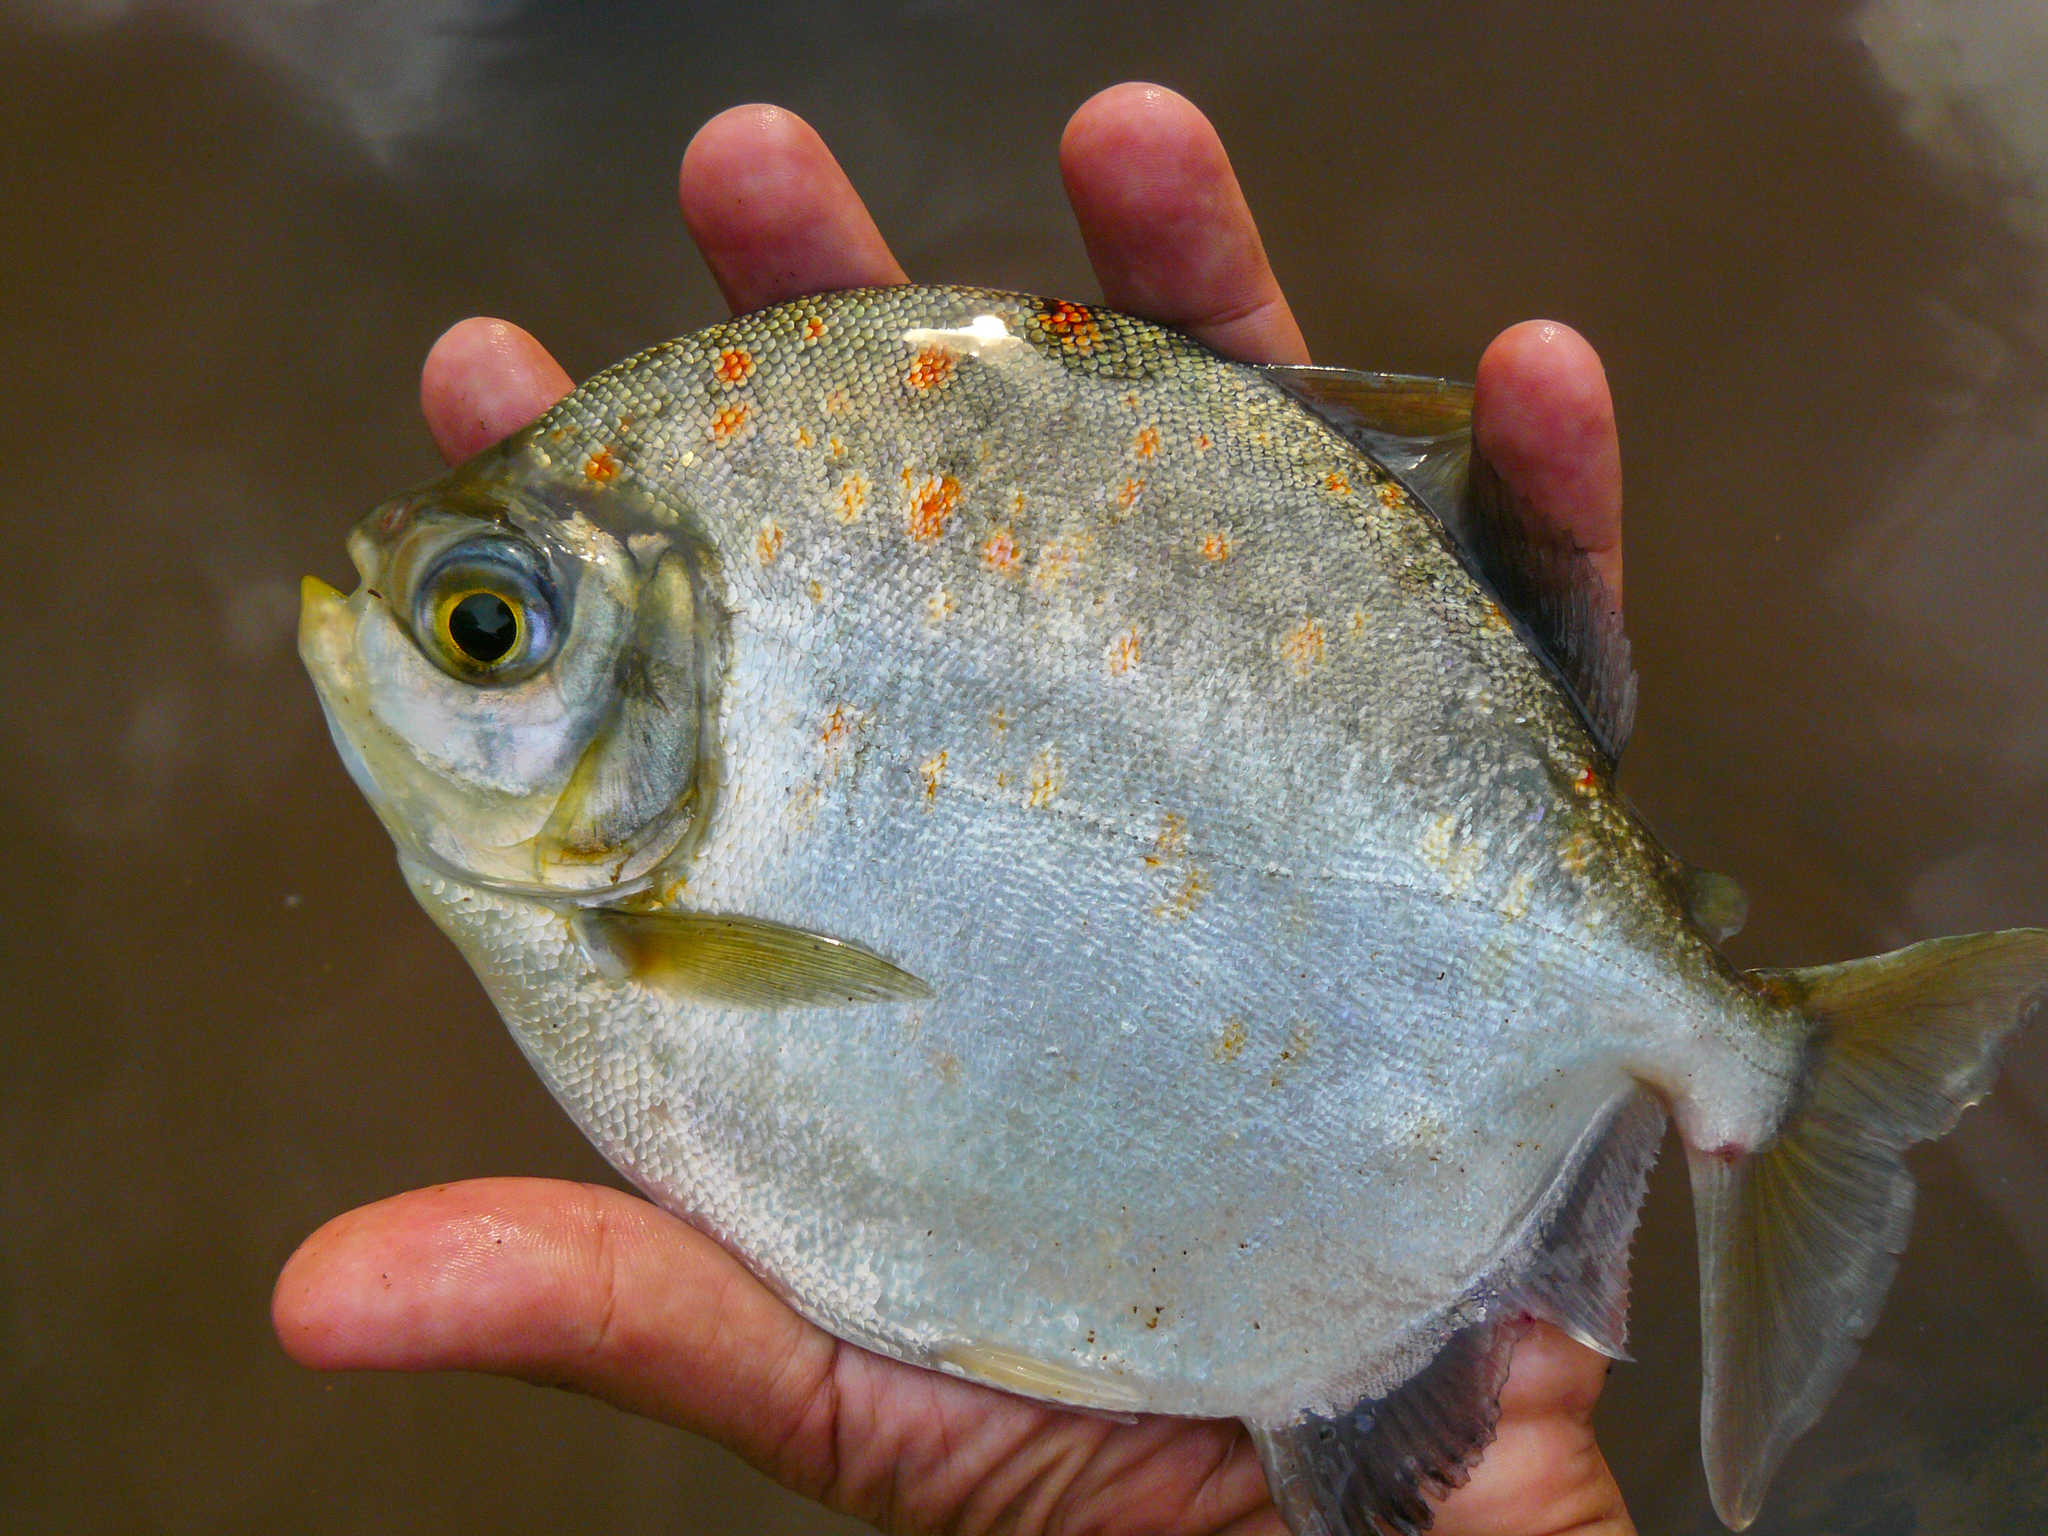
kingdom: Animalia
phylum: Chordata
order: Characiformes
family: Serrasalmidae
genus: Myloplus
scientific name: Myloplus rubripinnis
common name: Redhook metynnis
